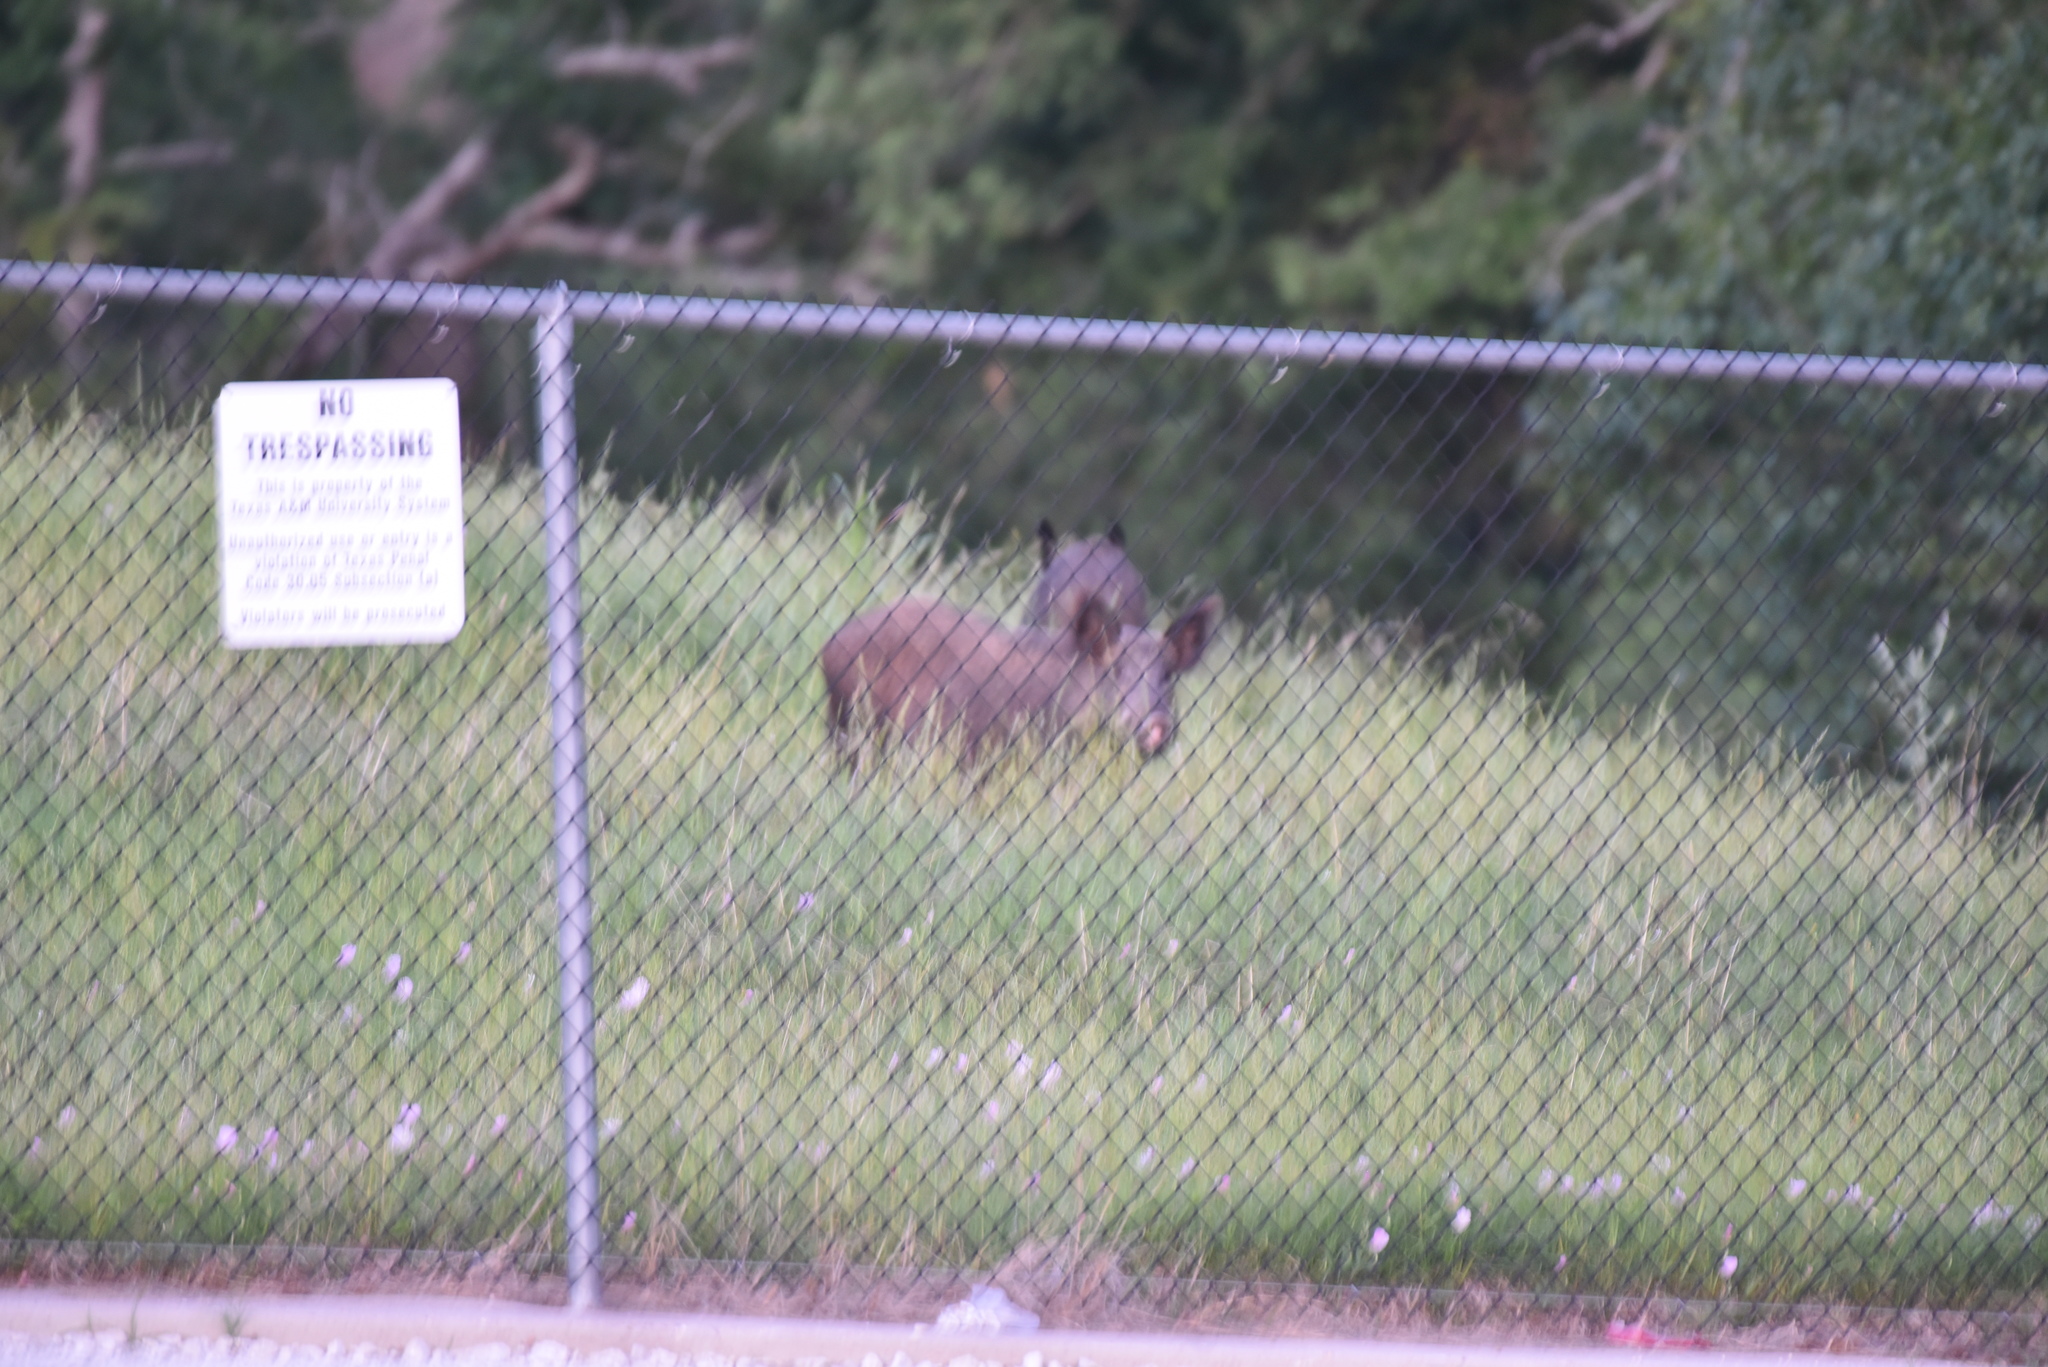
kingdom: Animalia
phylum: Chordata
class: Mammalia
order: Artiodactyla
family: Suidae
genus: Sus
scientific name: Sus scrofa
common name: Wild boar
